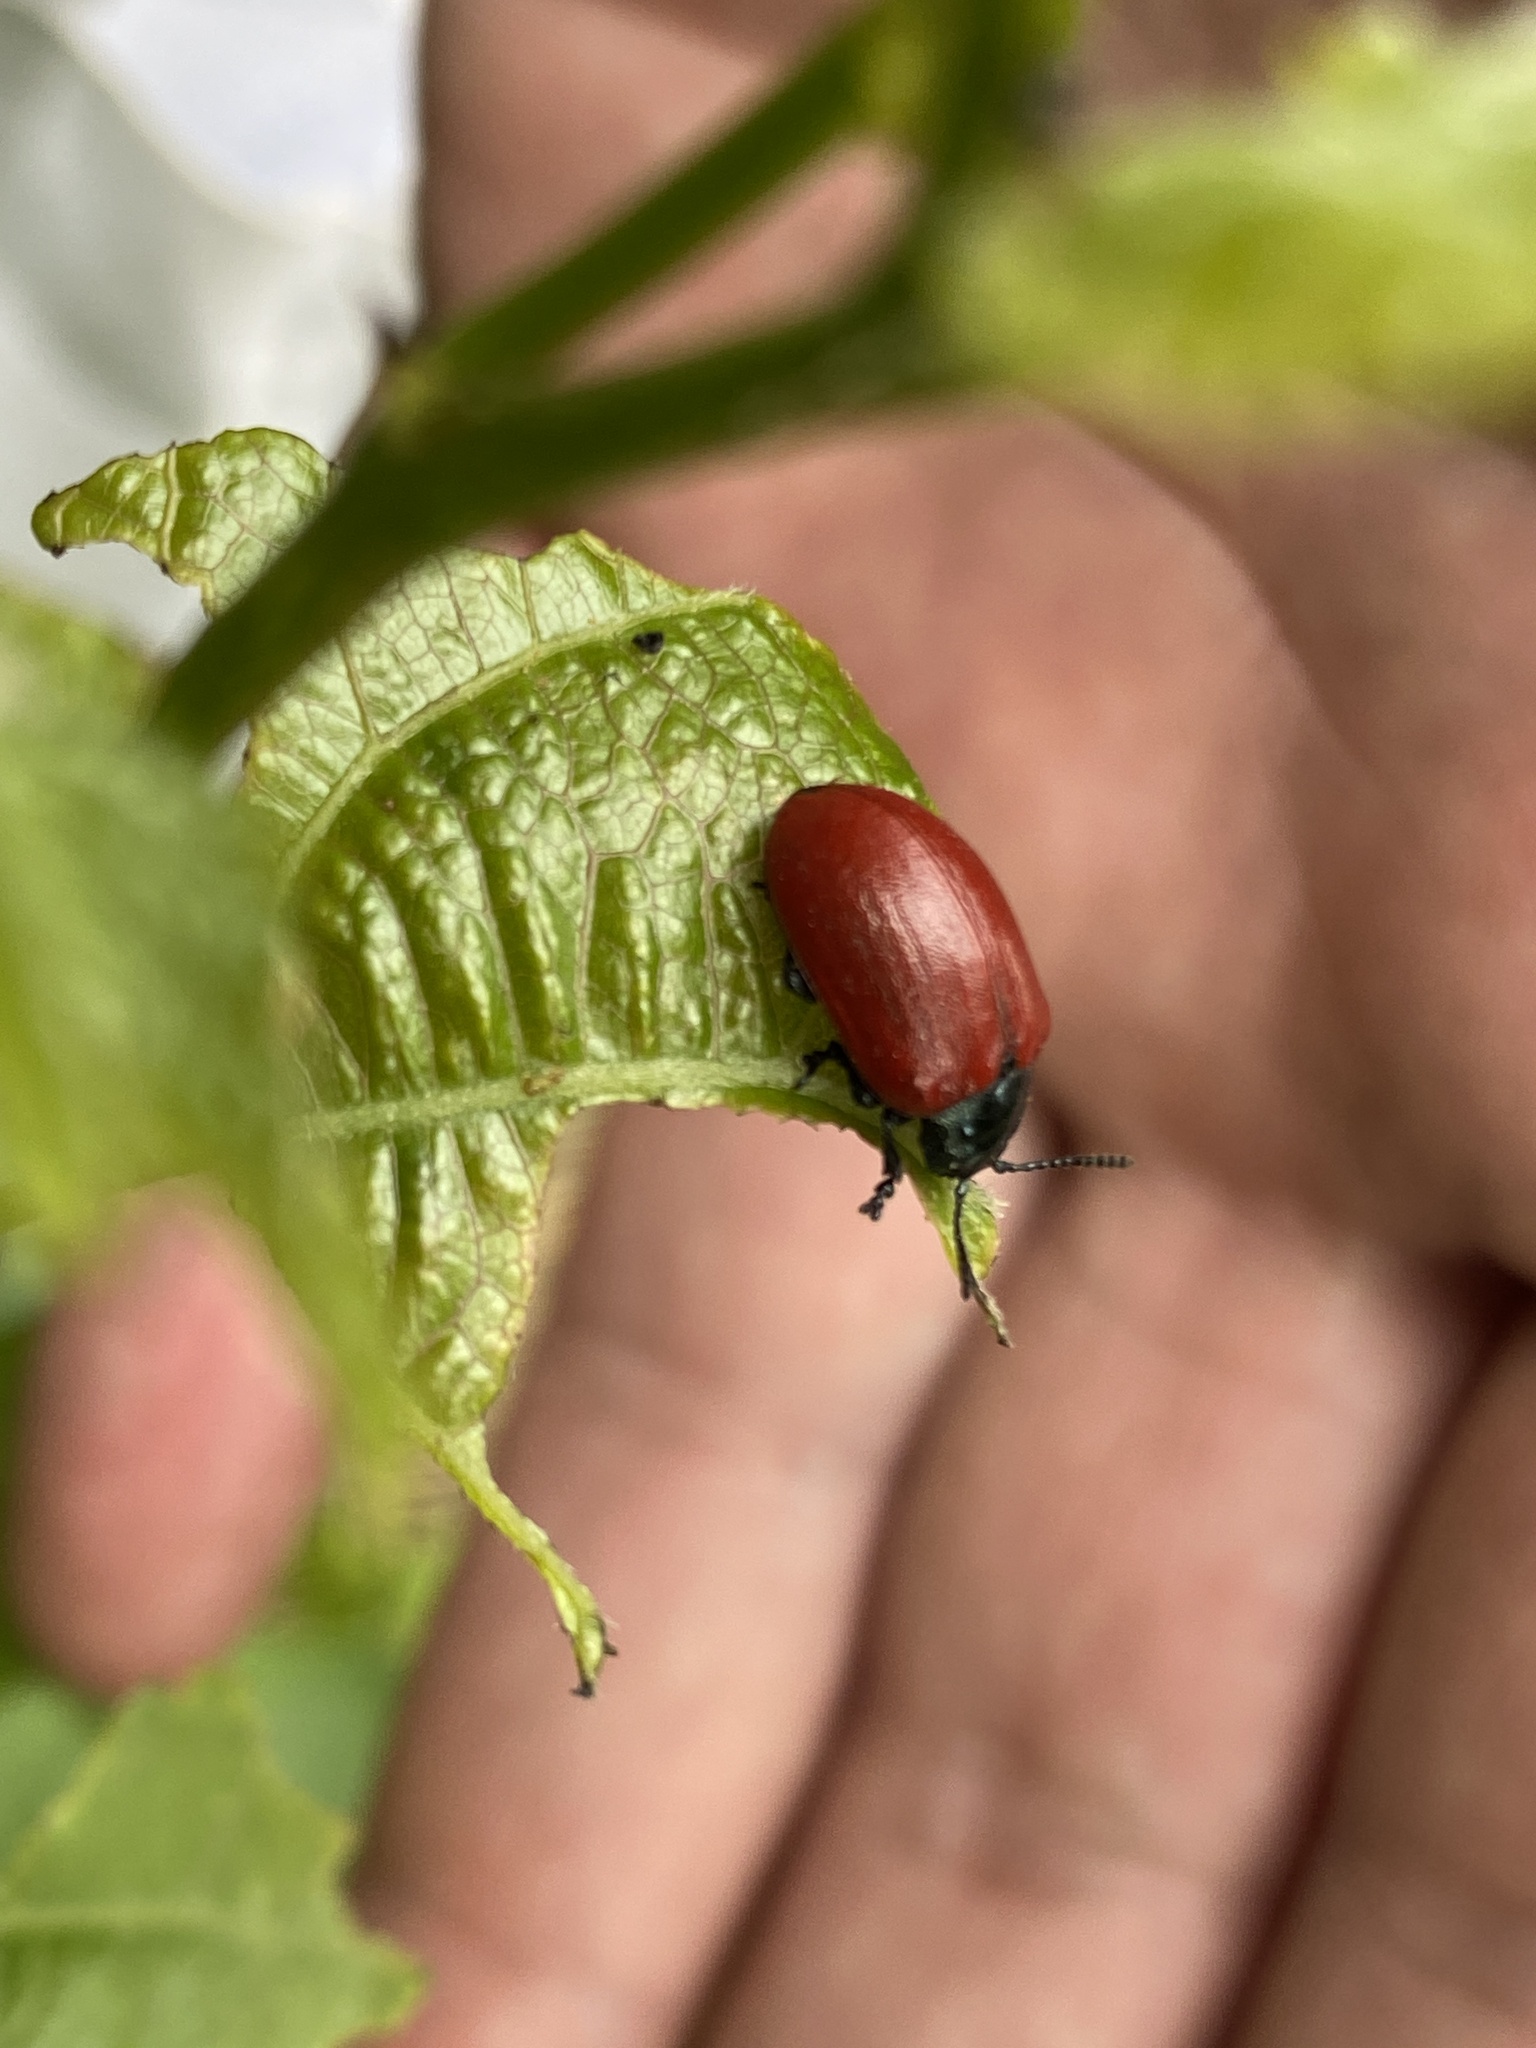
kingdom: Animalia
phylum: Arthropoda
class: Insecta
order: Coleoptera
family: Chrysomelidae
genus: Chrysomela
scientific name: Chrysomela populi
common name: Red poplar leaf beetle
